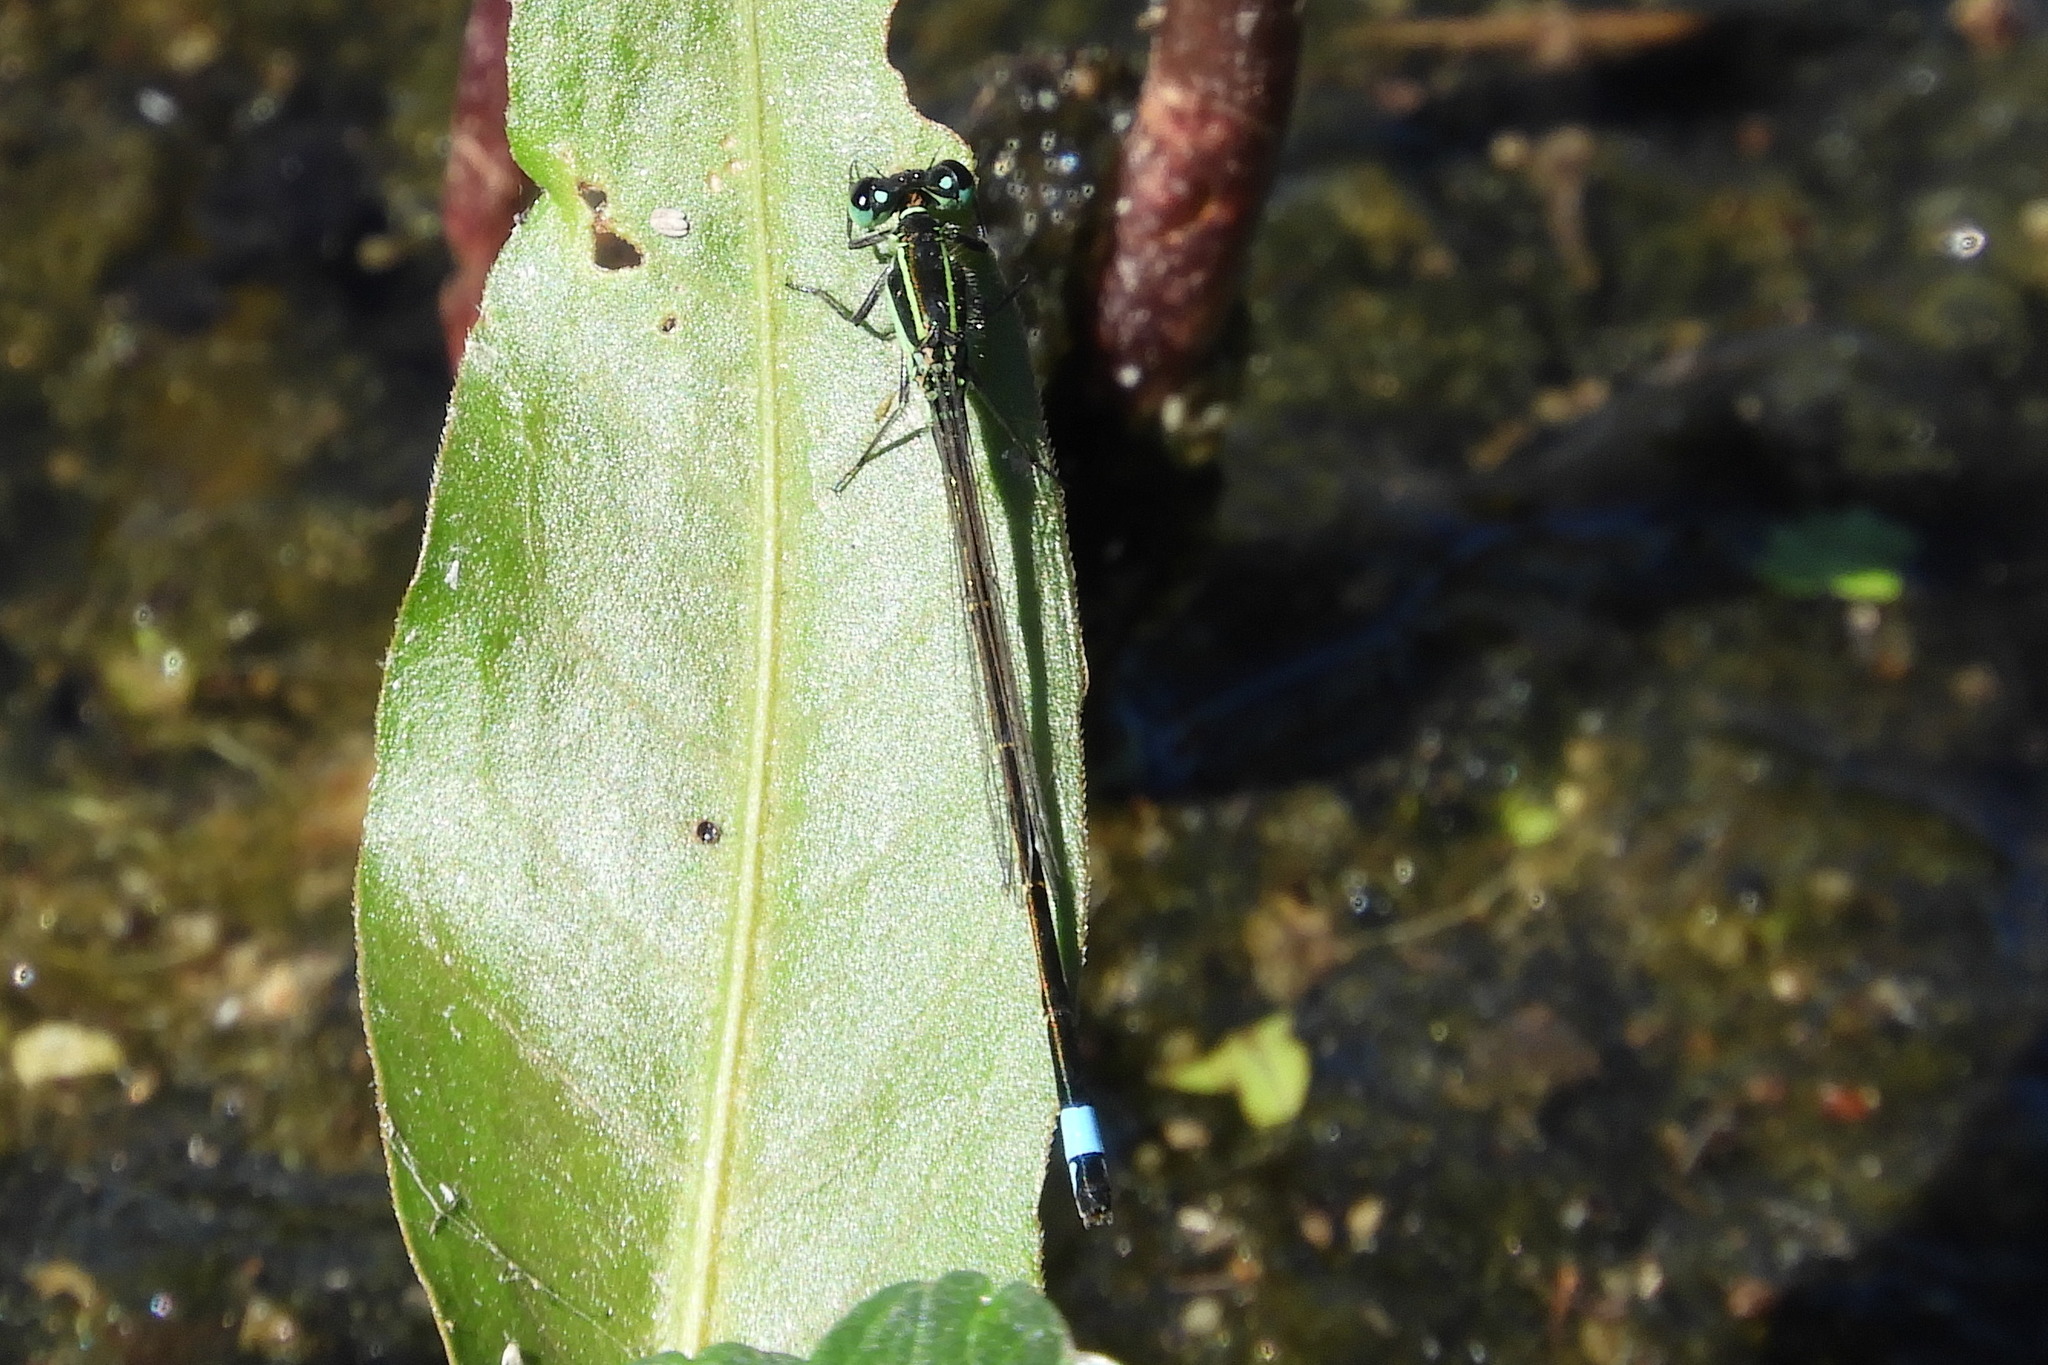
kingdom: Animalia
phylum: Arthropoda
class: Insecta
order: Odonata
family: Coenagrionidae
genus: Ischnura
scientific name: Ischnura ramburii
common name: Rambur's forktail
